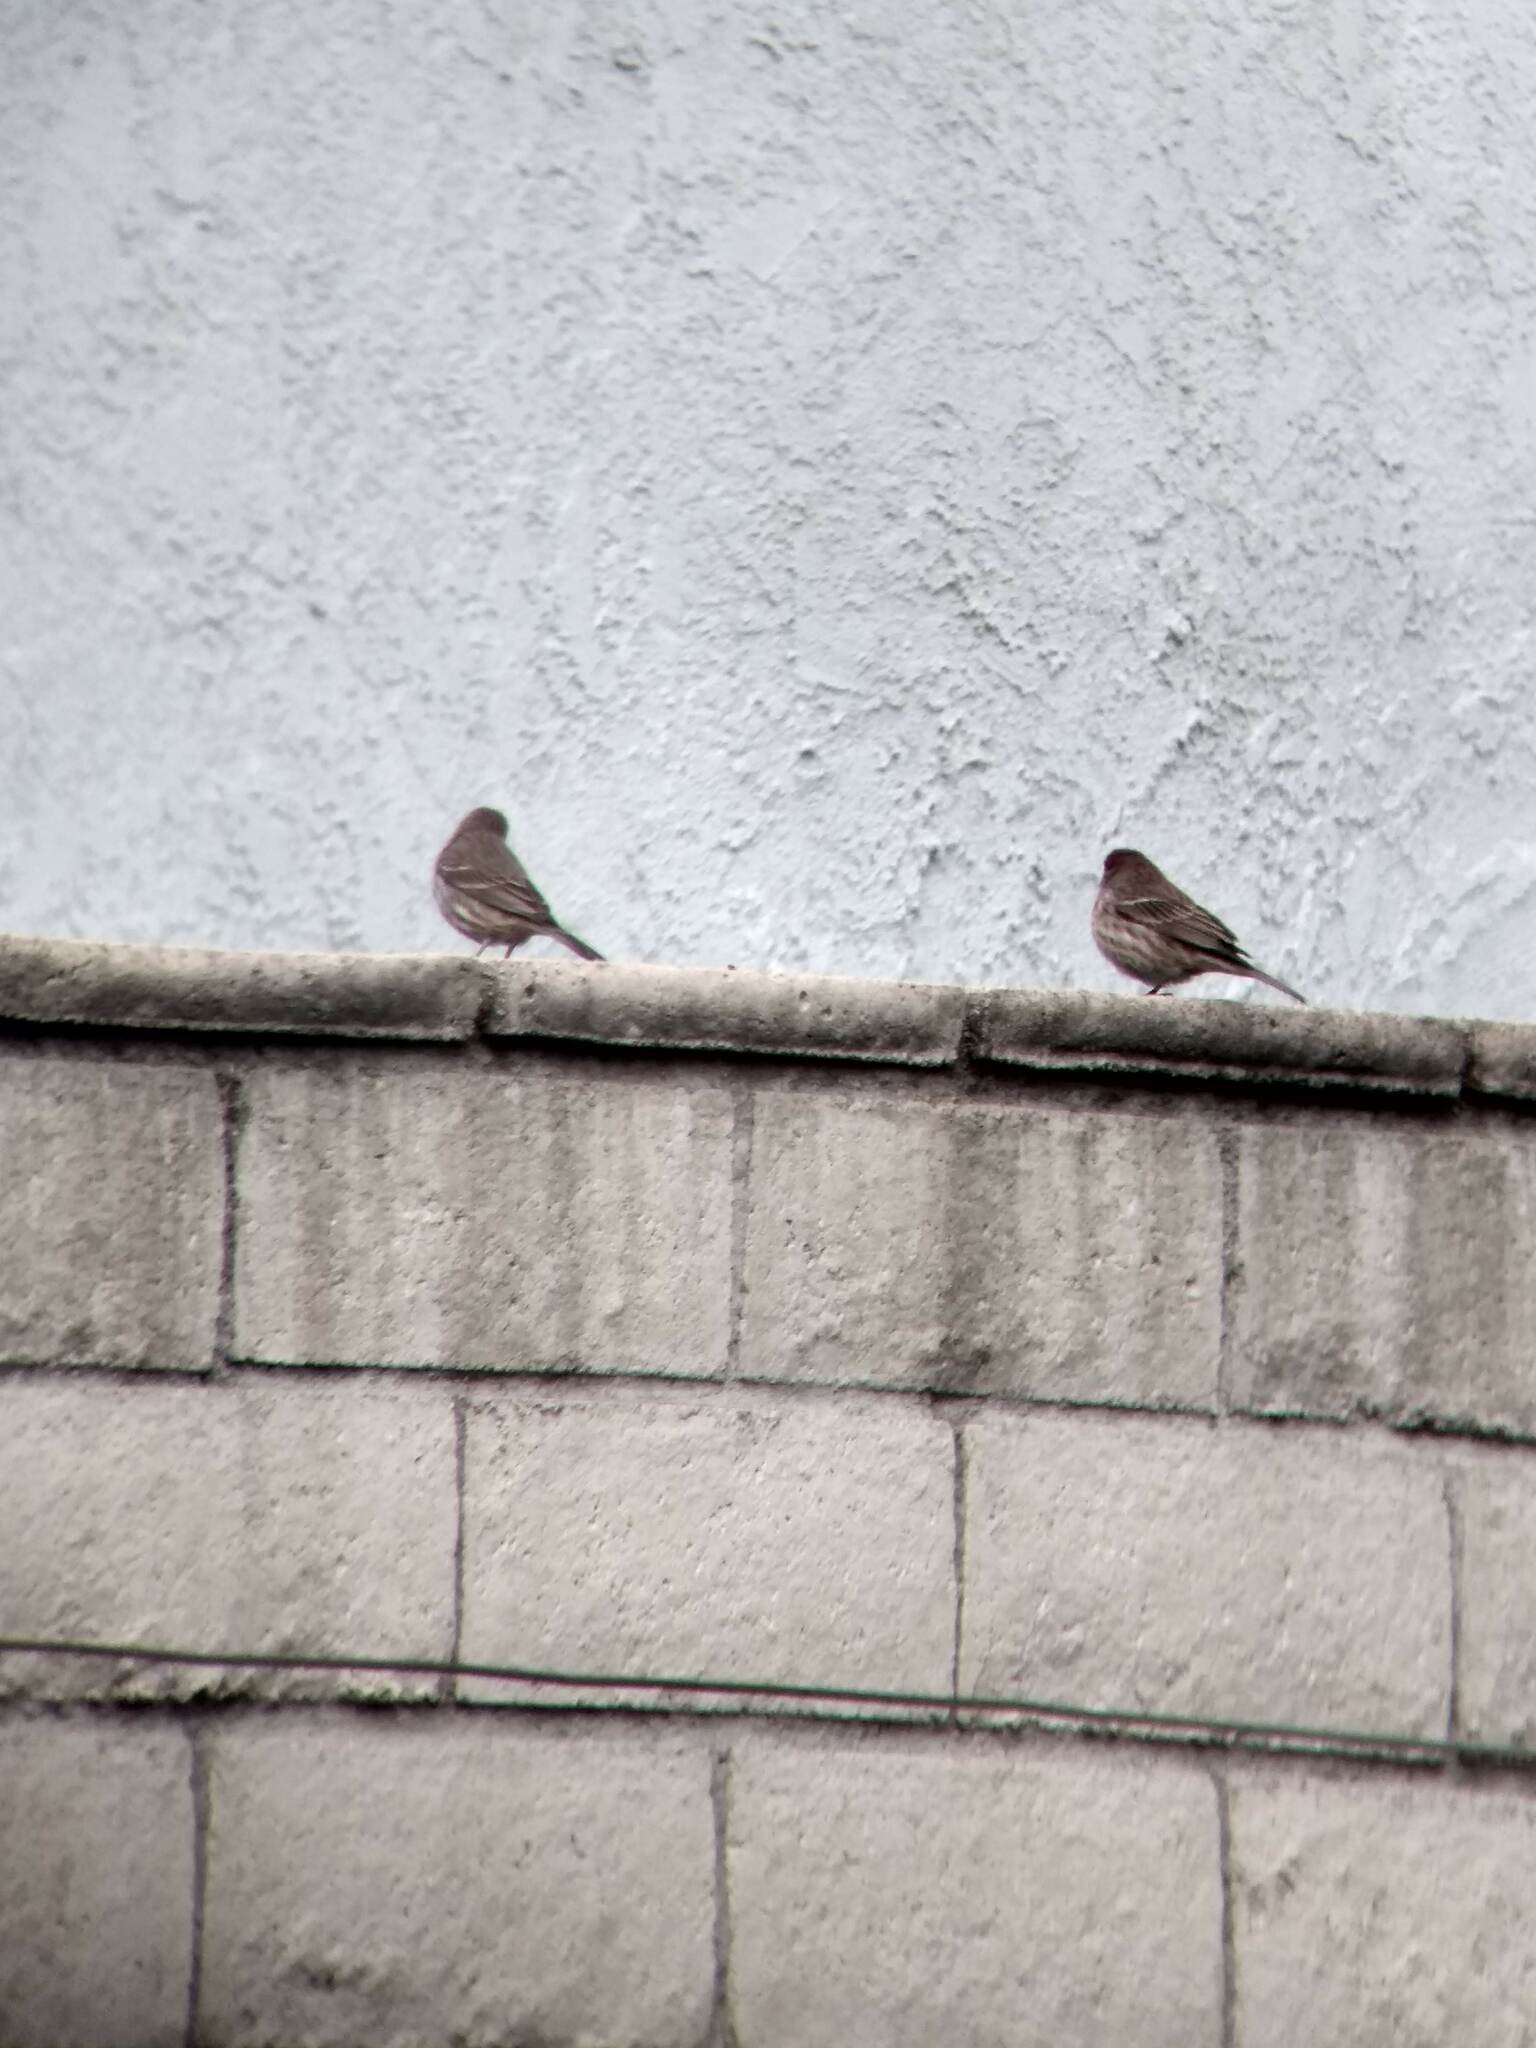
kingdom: Animalia
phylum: Chordata
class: Aves
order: Passeriformes
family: Fringillidae
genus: Haemorhous
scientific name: Haemorhous mexicanus
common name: House finch
